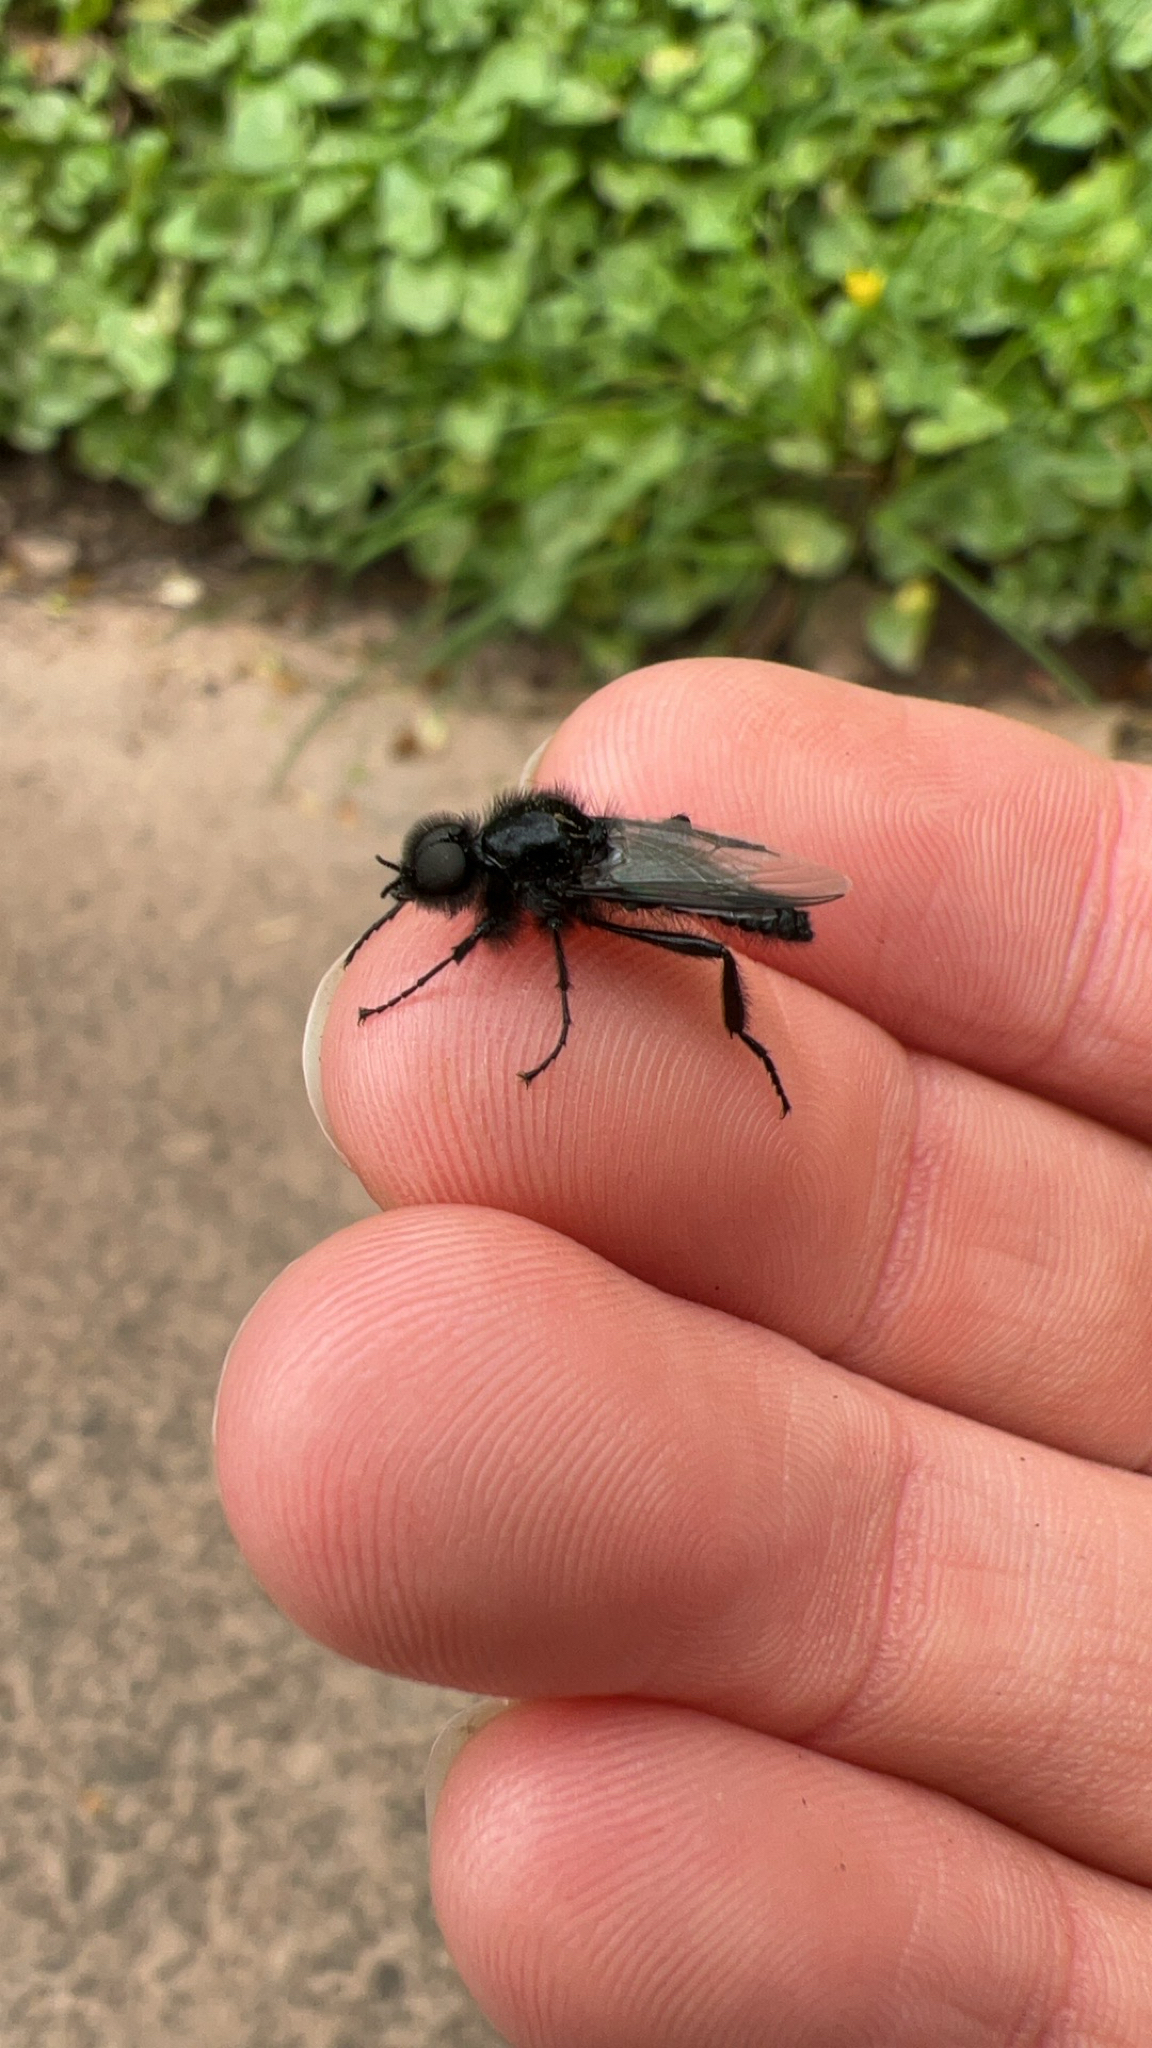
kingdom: Animalia
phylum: Arthropoda
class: Insecta
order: Diptera
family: Bibionidae
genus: Bibio
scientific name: Bibio marci
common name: St marks fly
